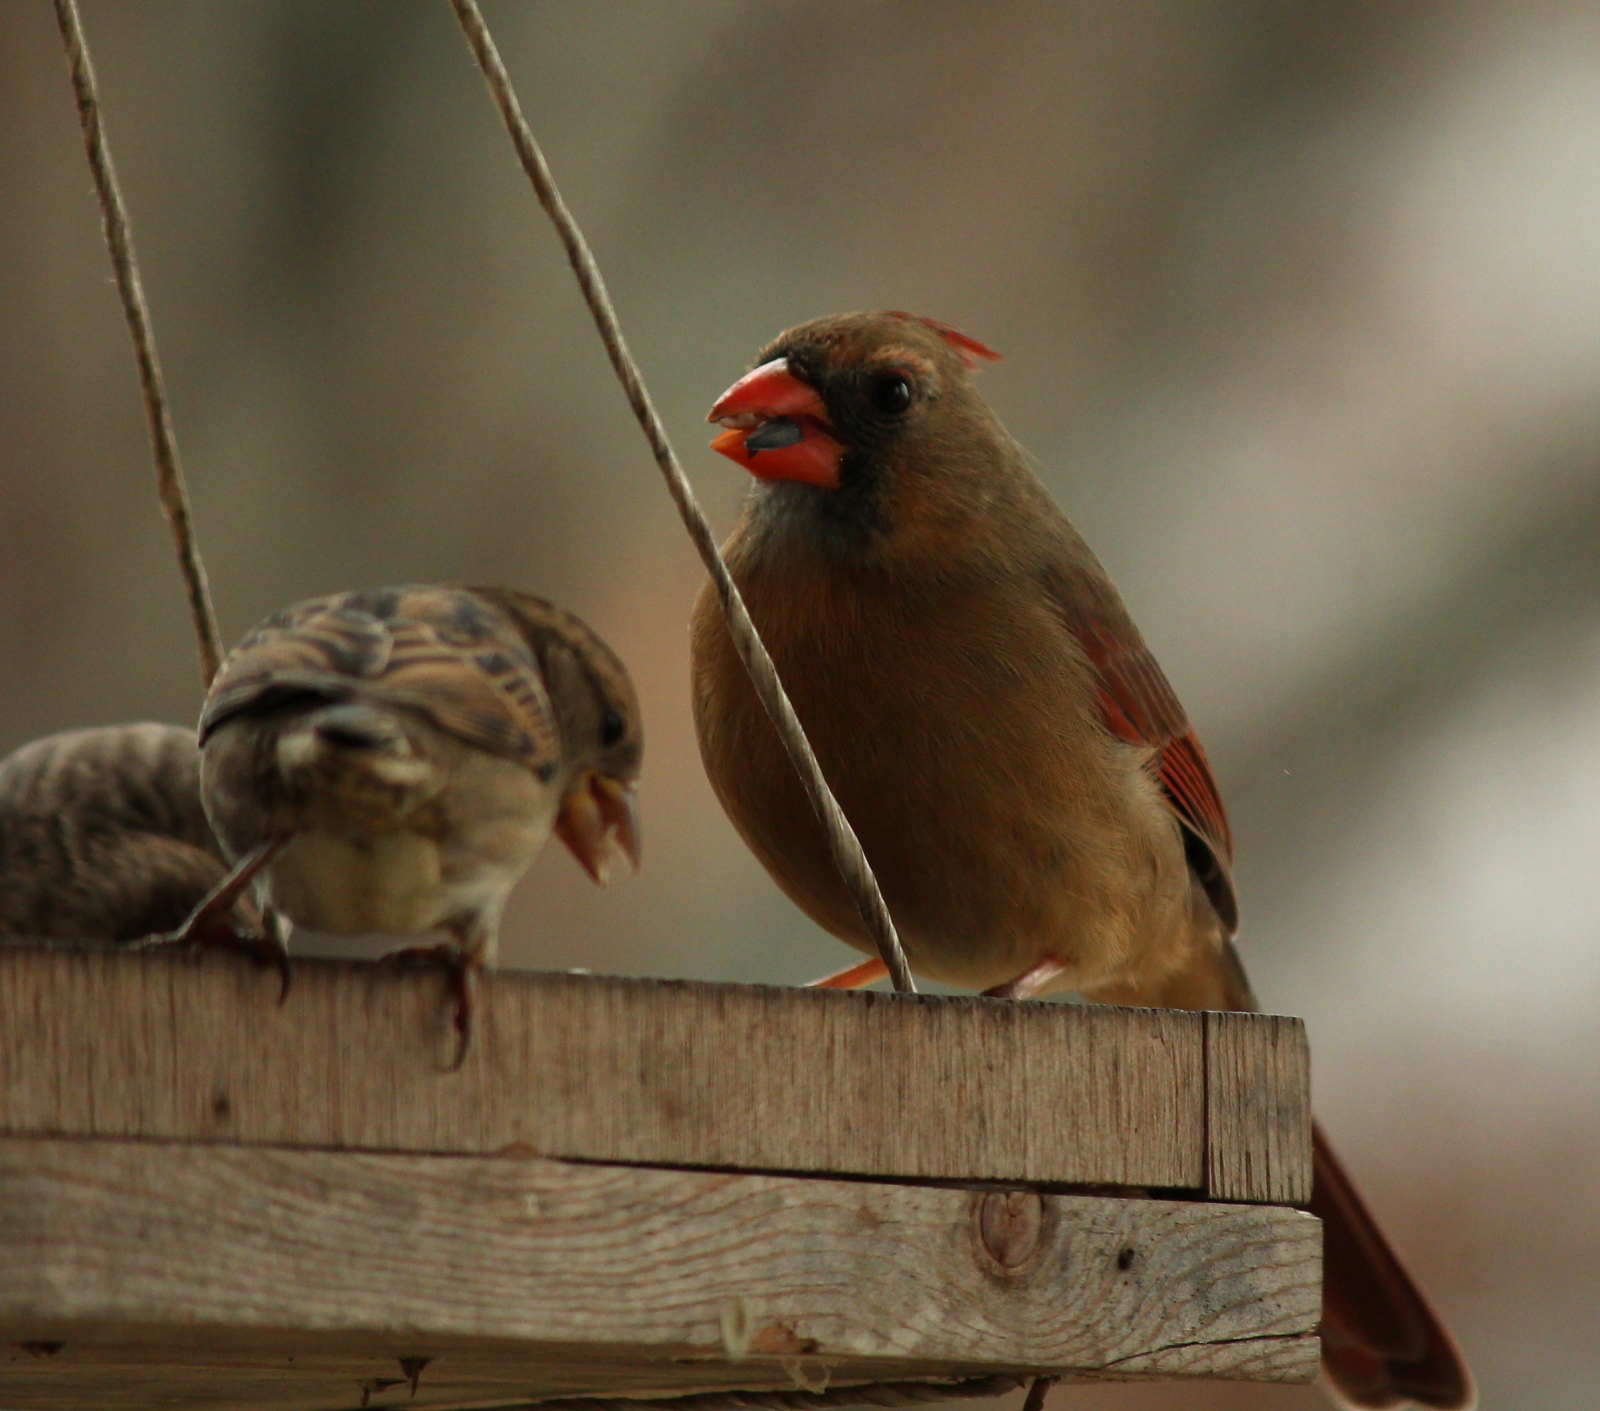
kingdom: Animalia
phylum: Chordata
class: Aves
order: Passeriformes
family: Cardinalidae
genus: Cardinalis
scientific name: Cardinalis cardinalis
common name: Northern cardinal
